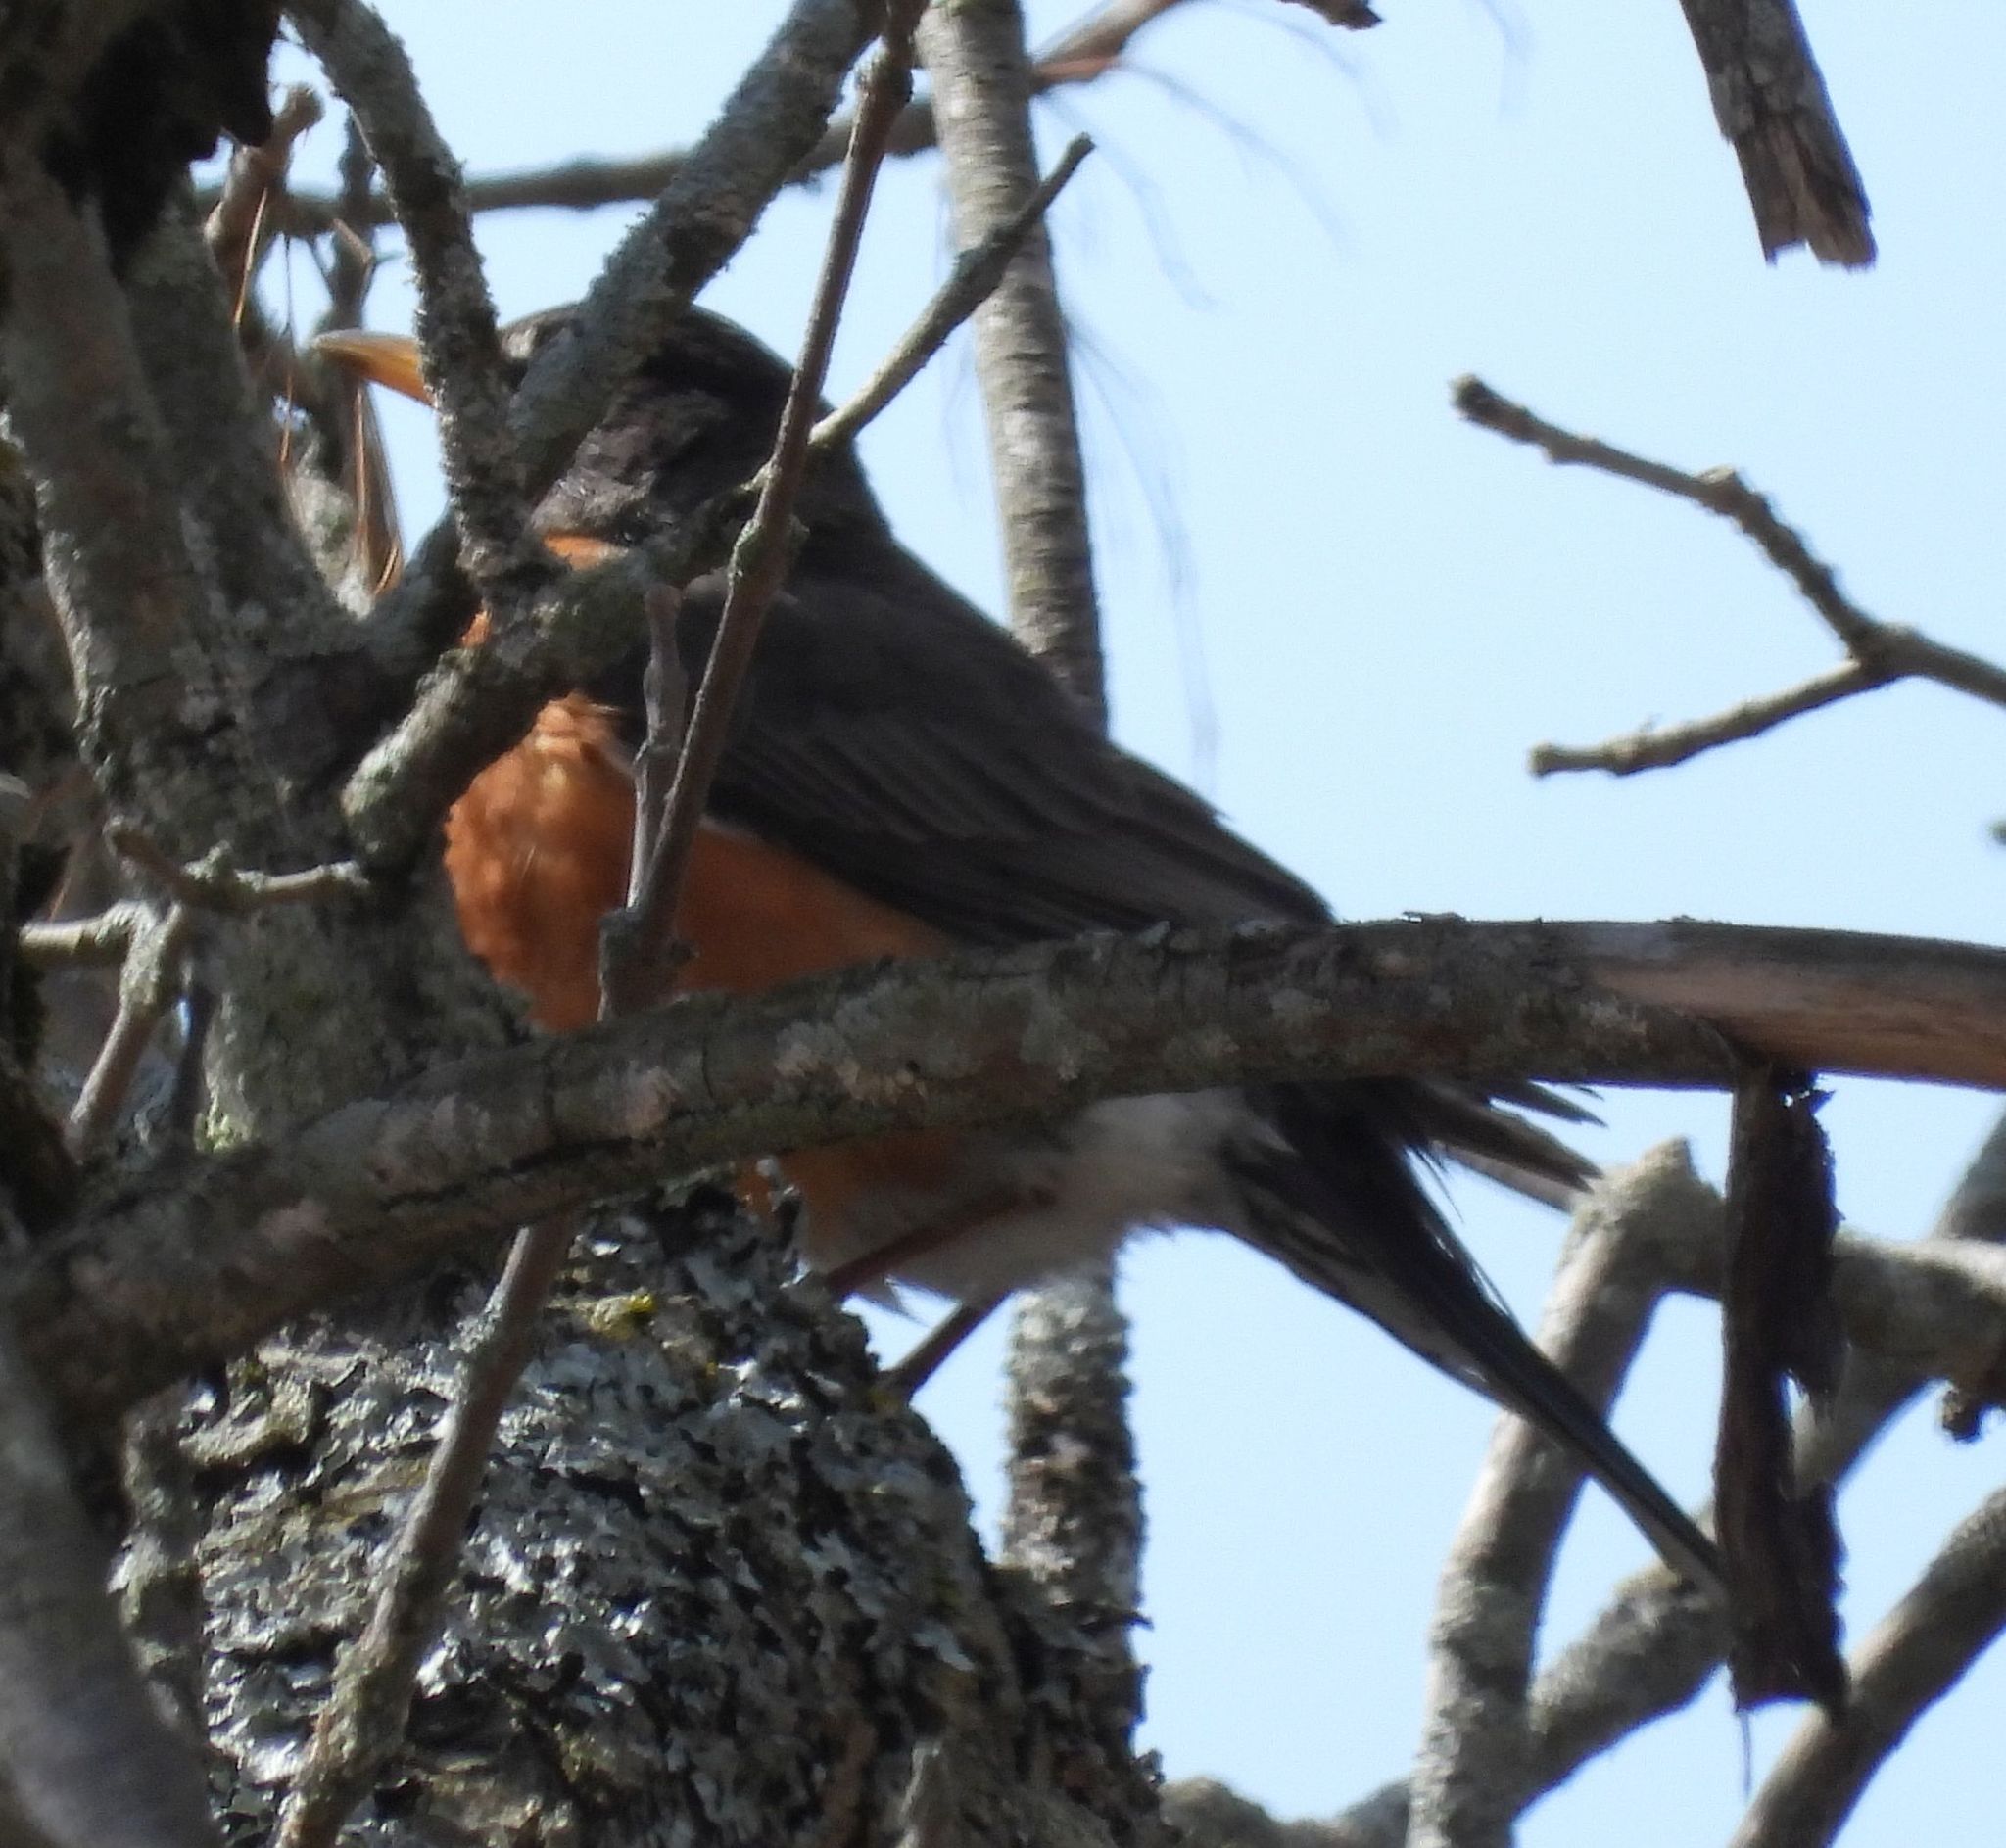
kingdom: Animalia
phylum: Chordata
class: Aves
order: Passeriformes
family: Turdidae
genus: Turdus
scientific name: Turdus migratorius
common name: American robin
